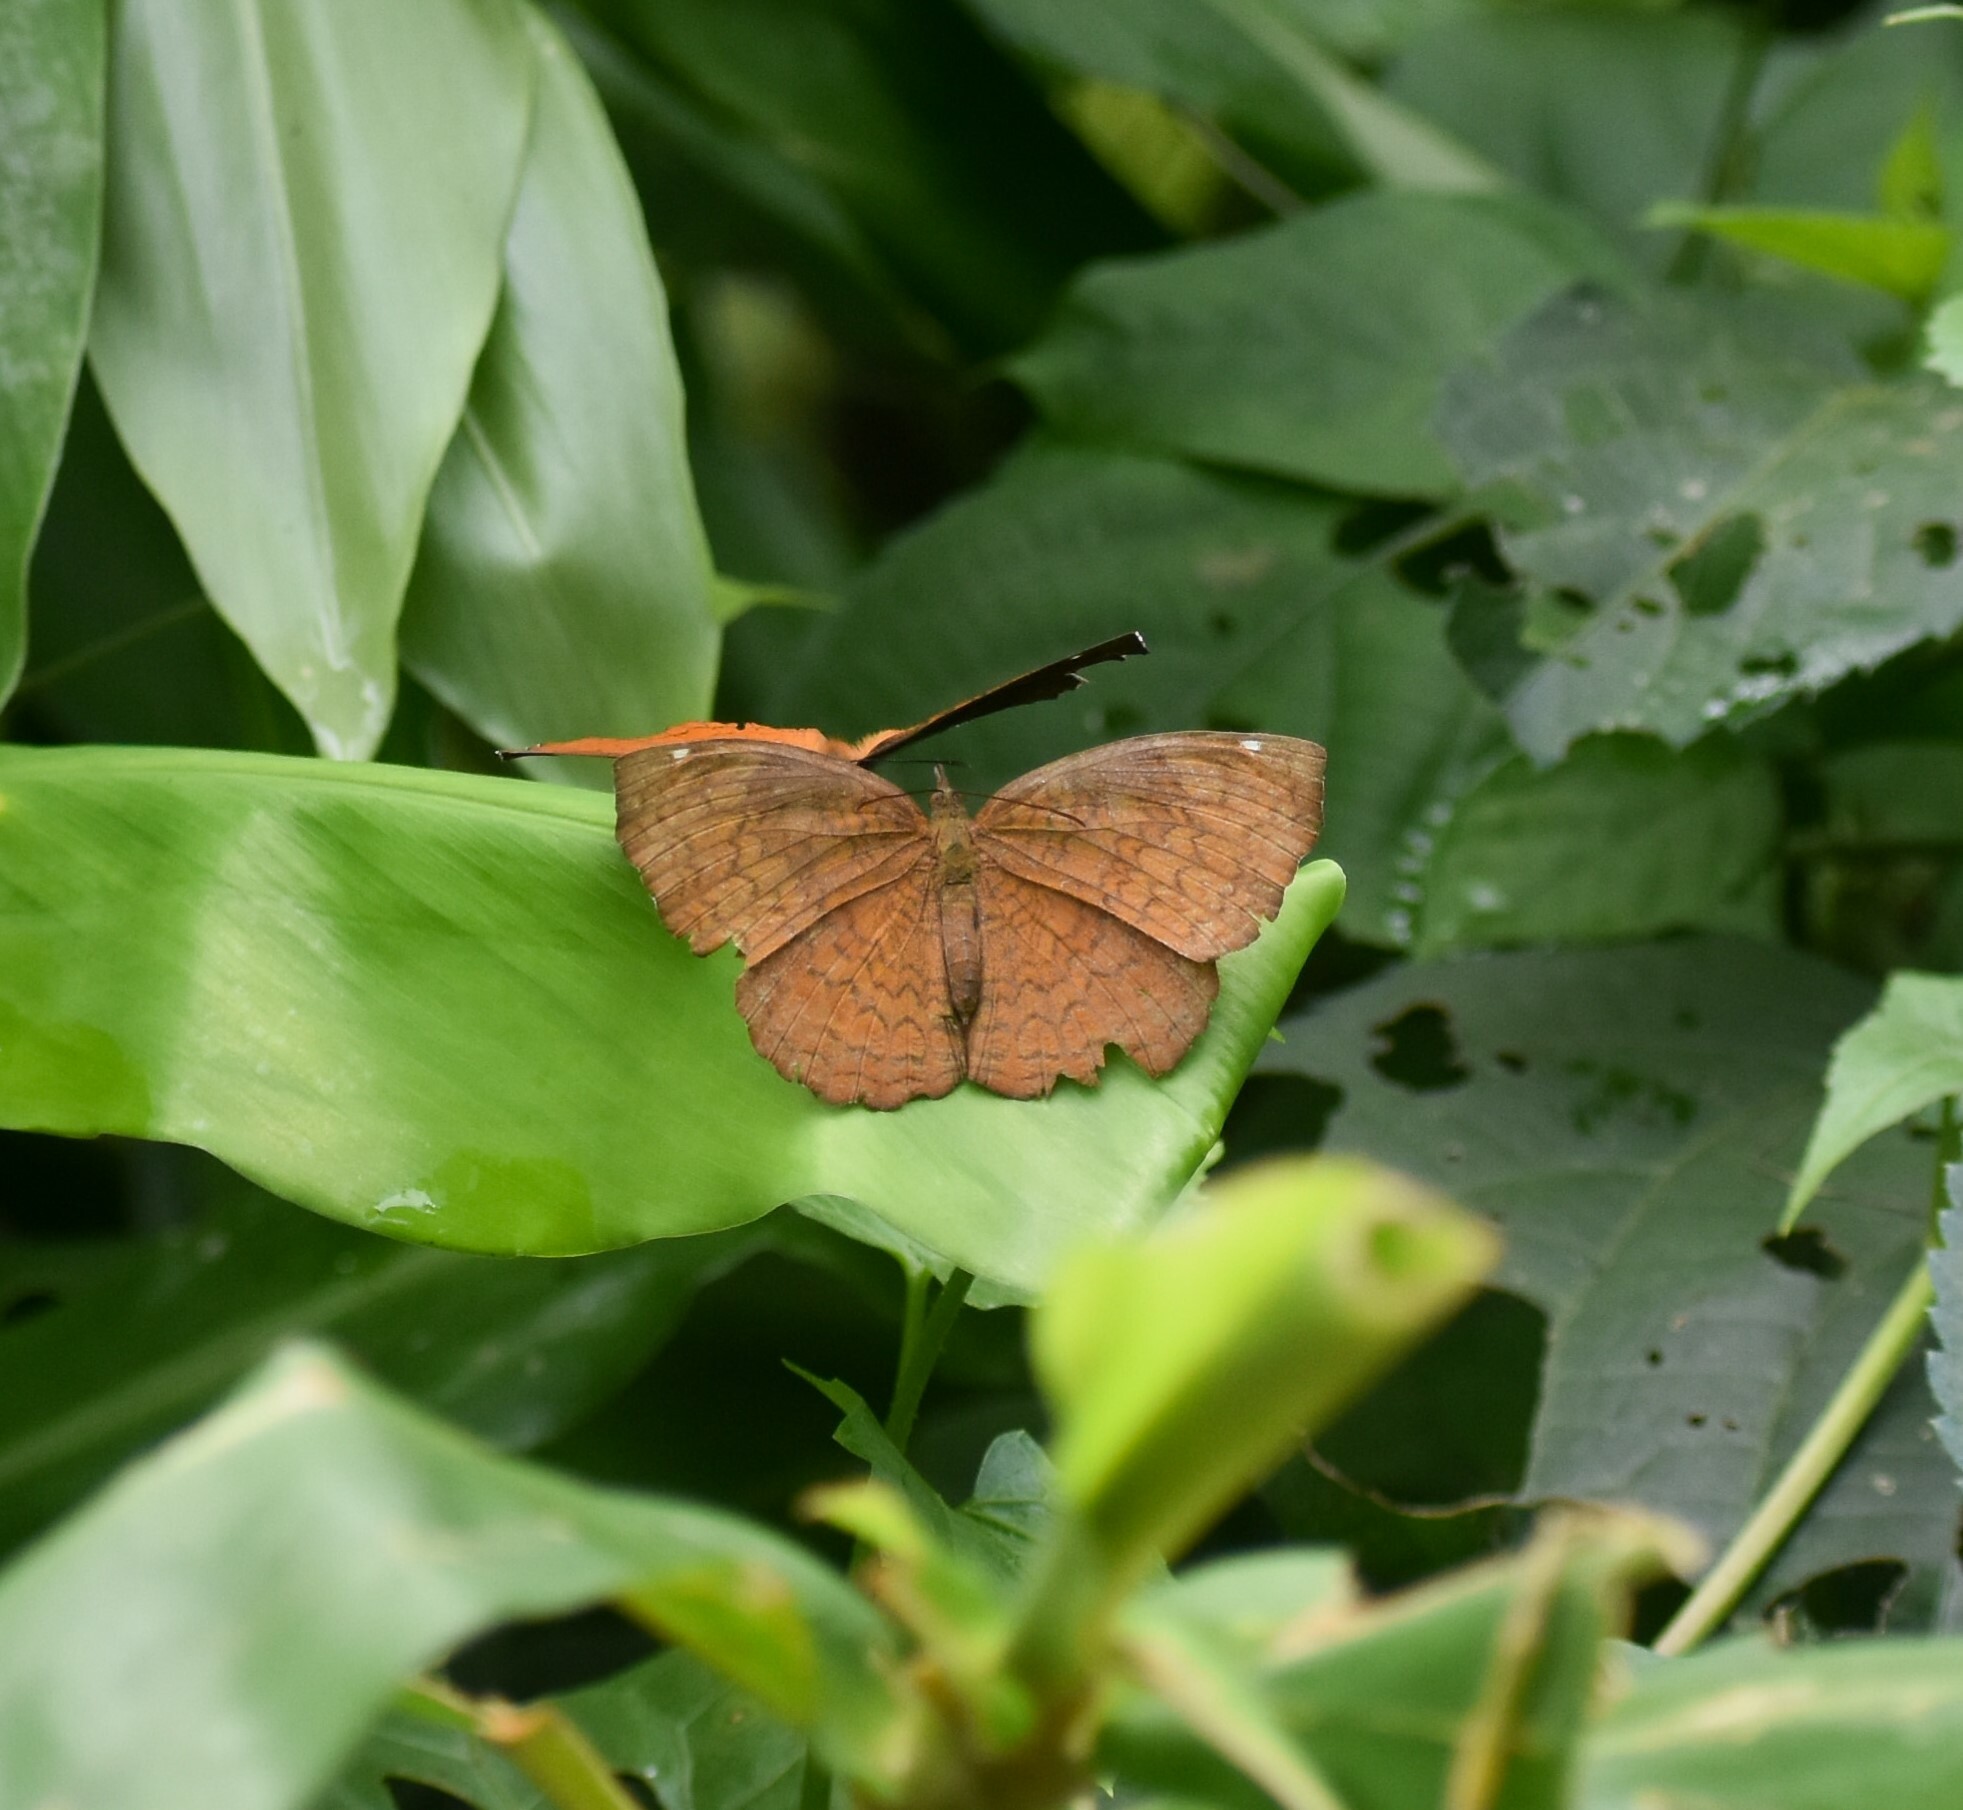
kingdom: Animalia
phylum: Arthropoda
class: Insecta
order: Lepidoptera
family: Nymphalidae
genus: Ariadne
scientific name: Ariadne merione
